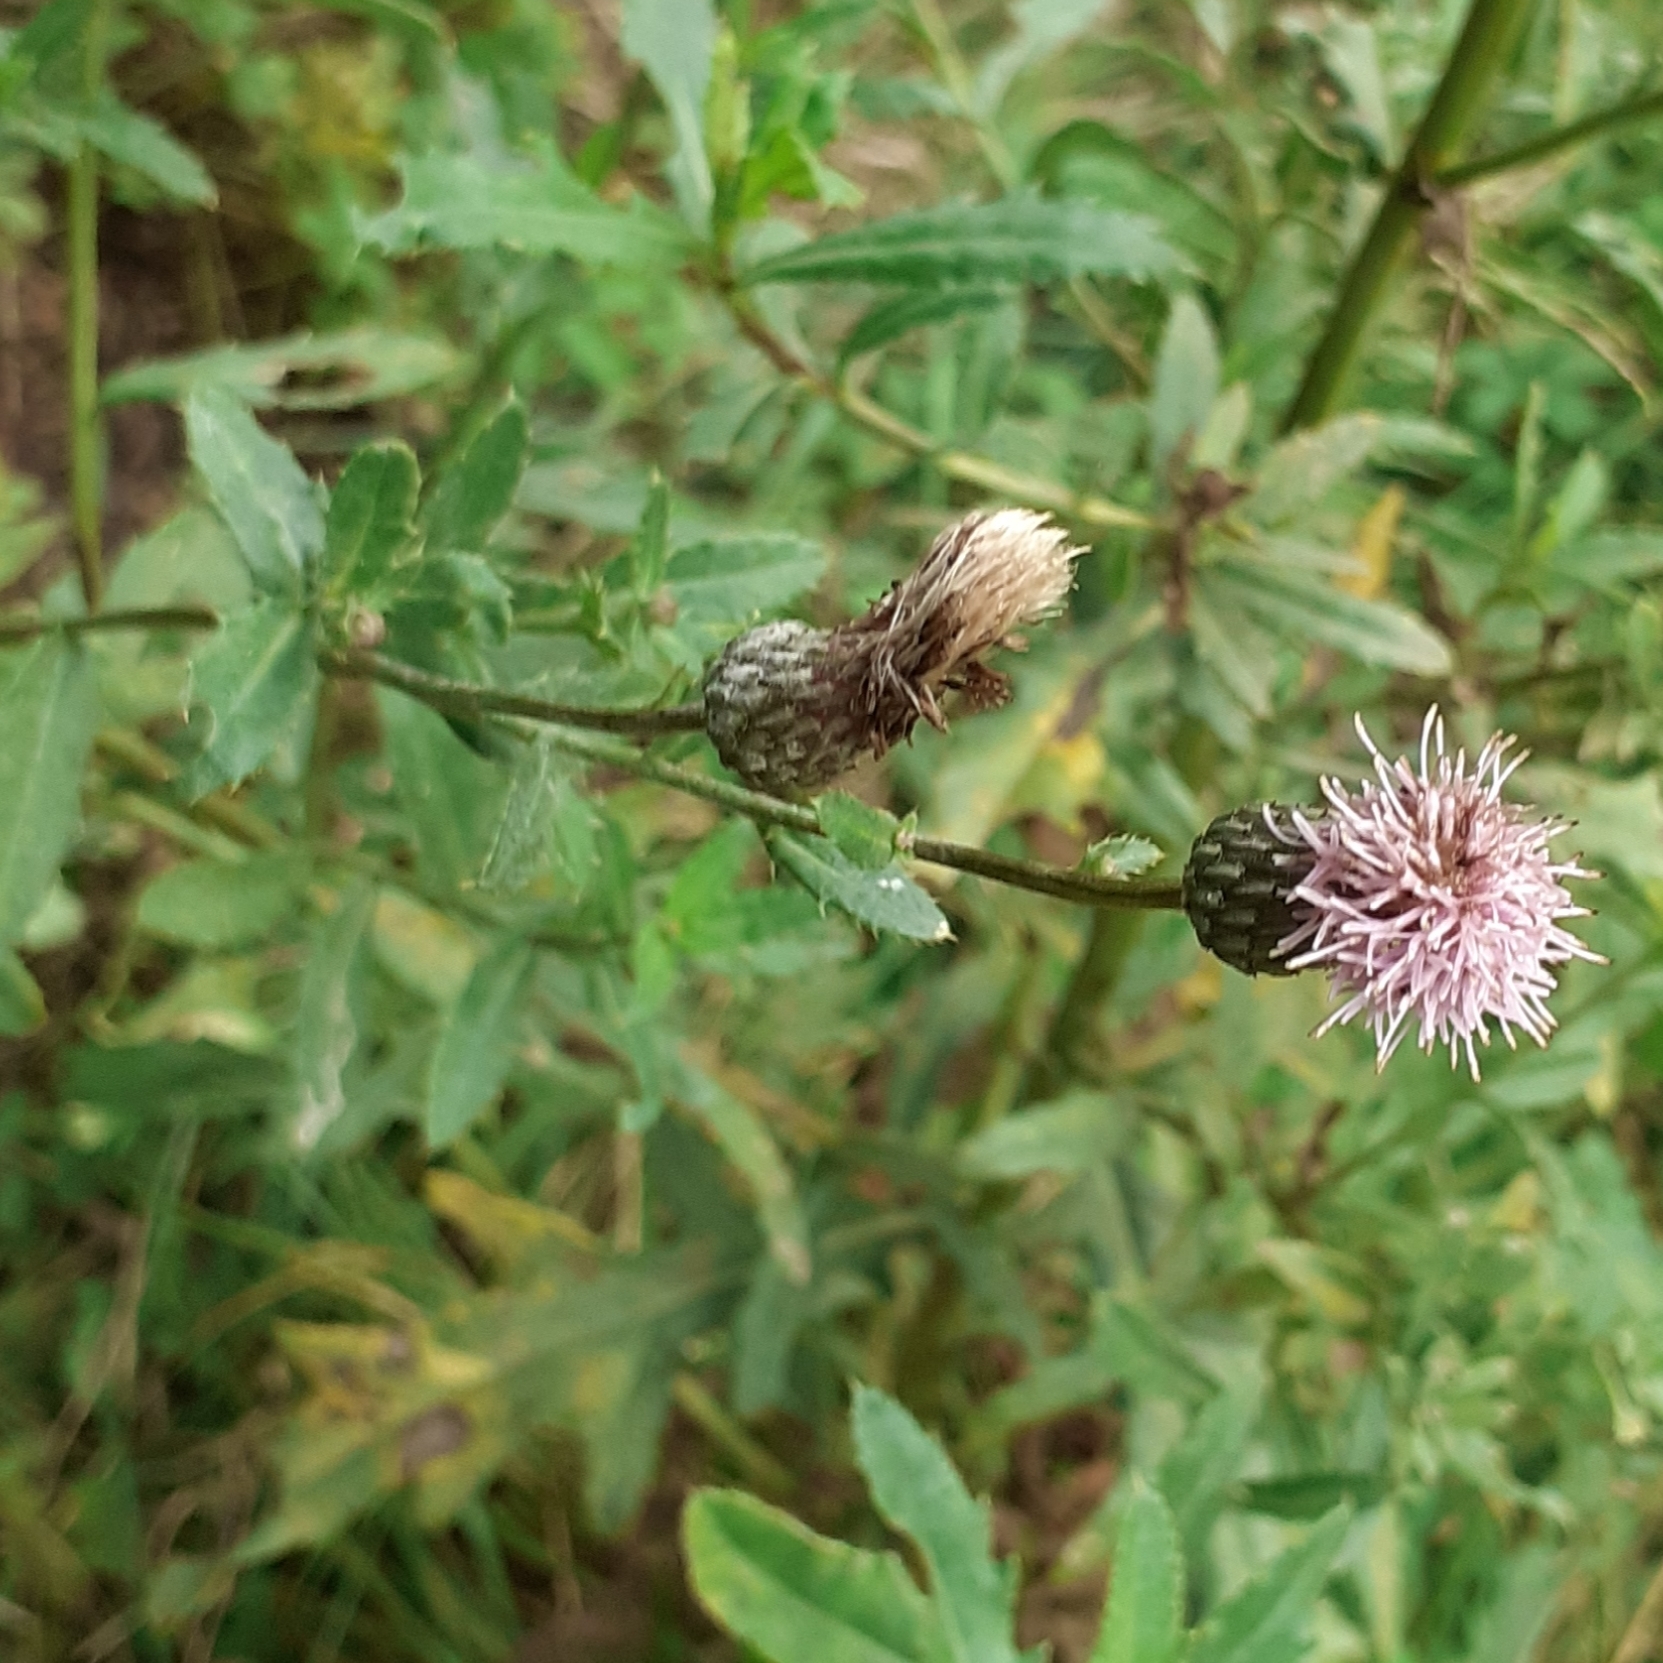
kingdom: Plantae
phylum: Tracheophyta
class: Magnoliopsida
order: Asterales
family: Asteraceae
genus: Cirsium
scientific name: Cirsium arvense
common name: Creeping thistle
